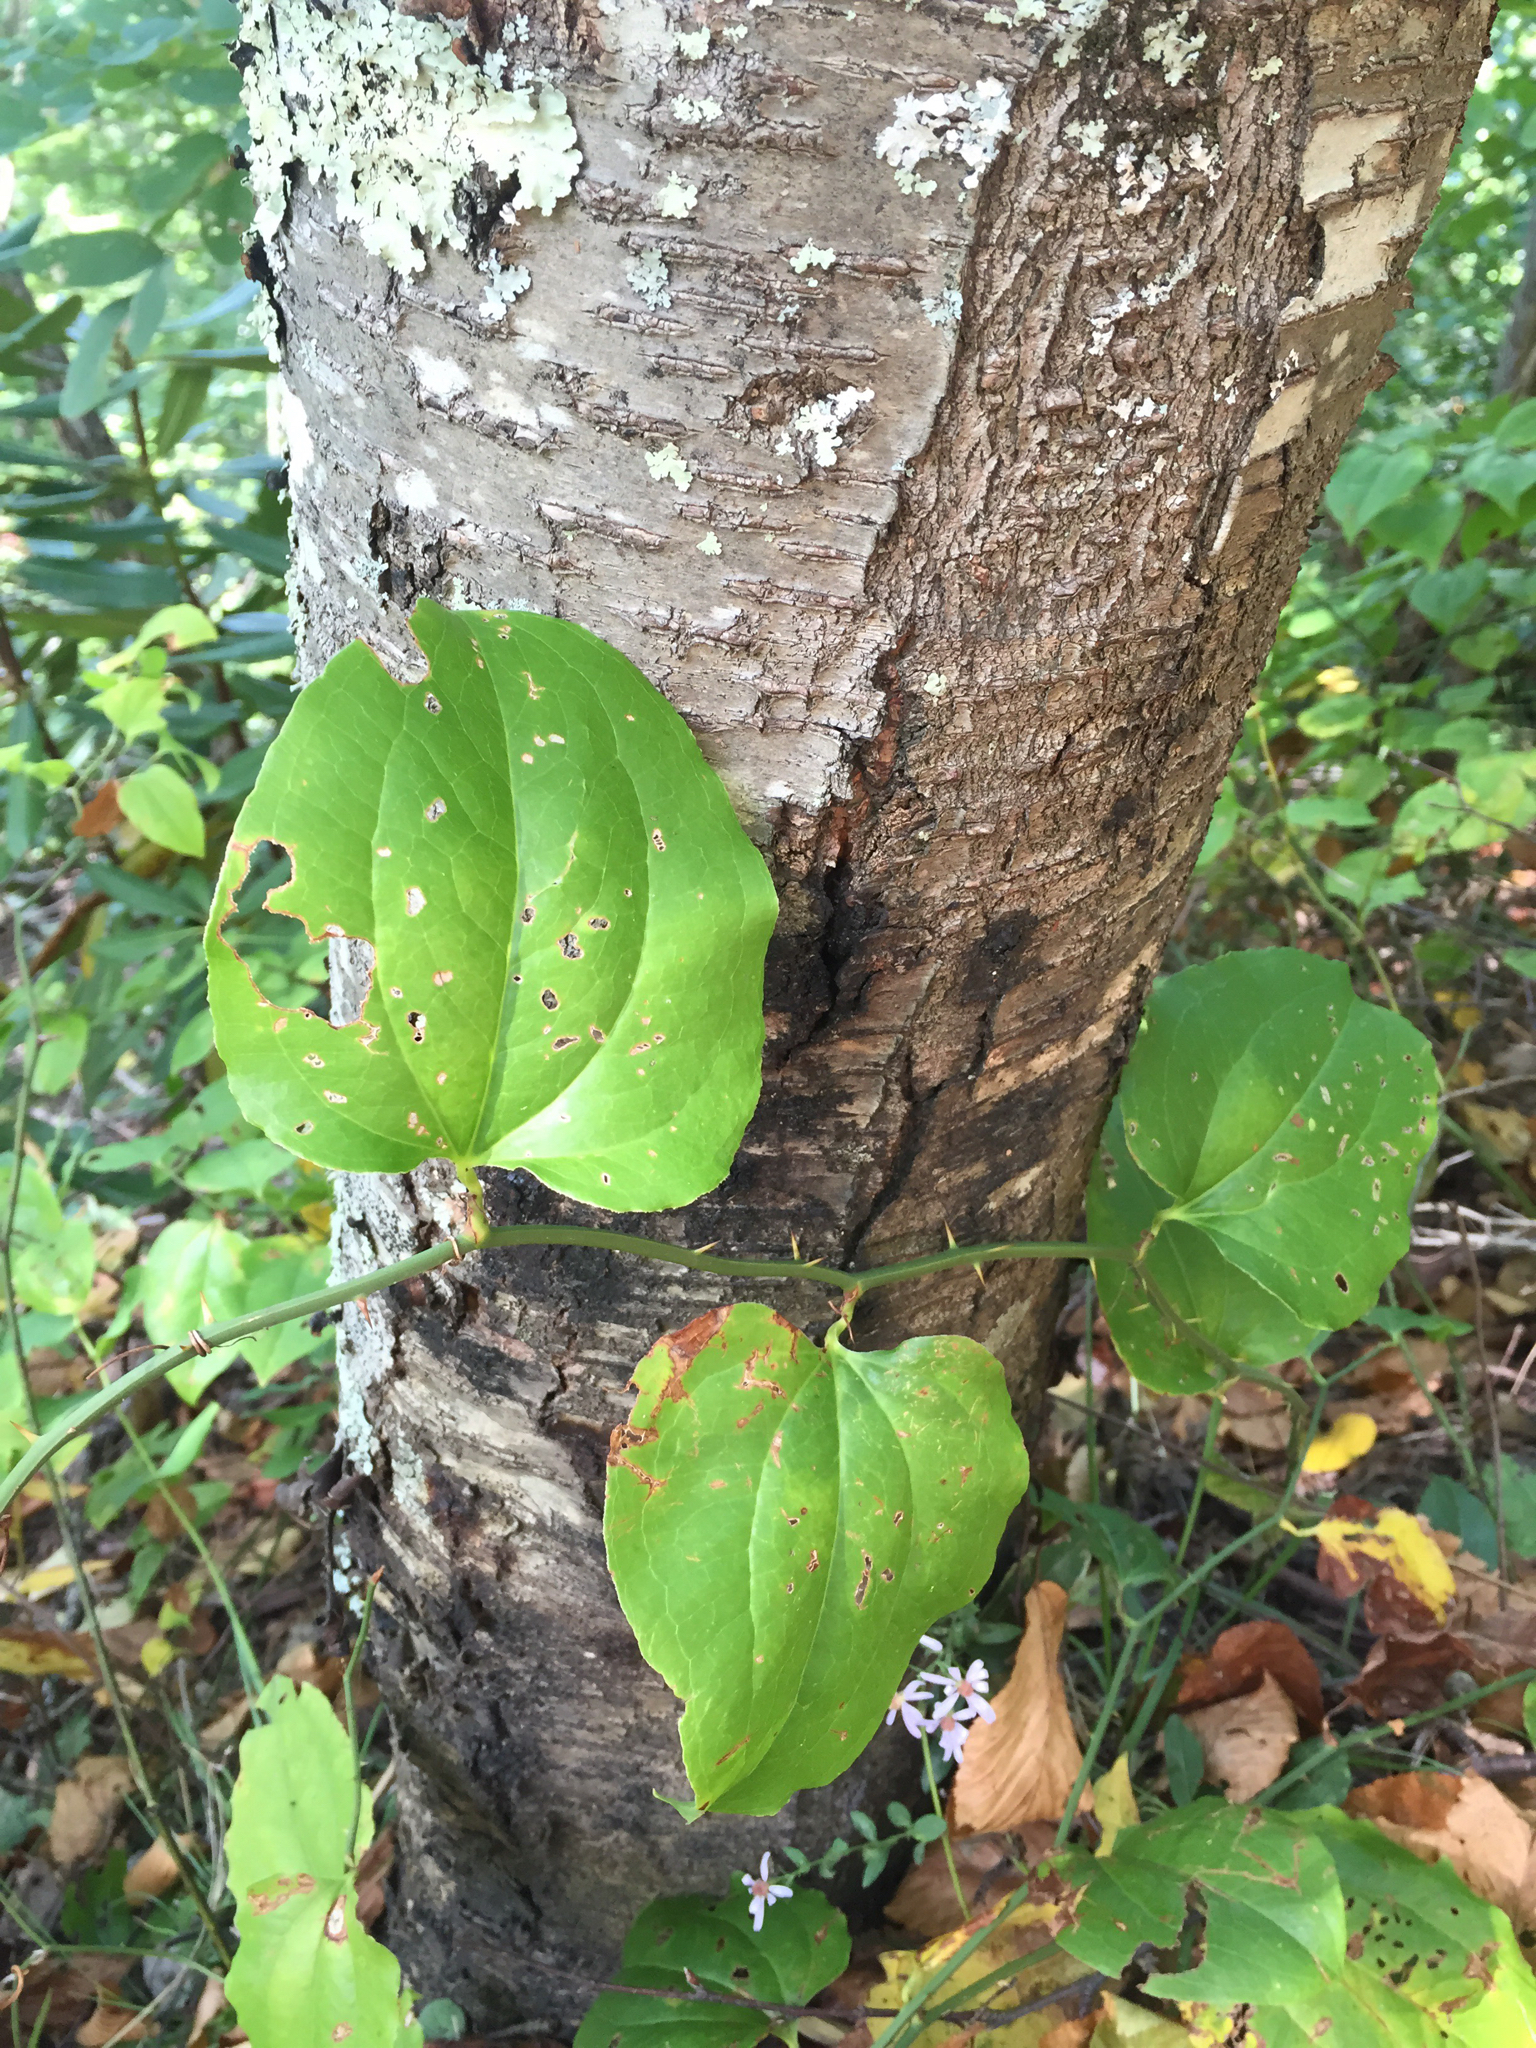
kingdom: Plantae
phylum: Tracheophyta
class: Liliopsida
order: Liliales
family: Smilacaceae
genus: Smilax
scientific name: Smilax rotundifolia
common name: Bullbriar
